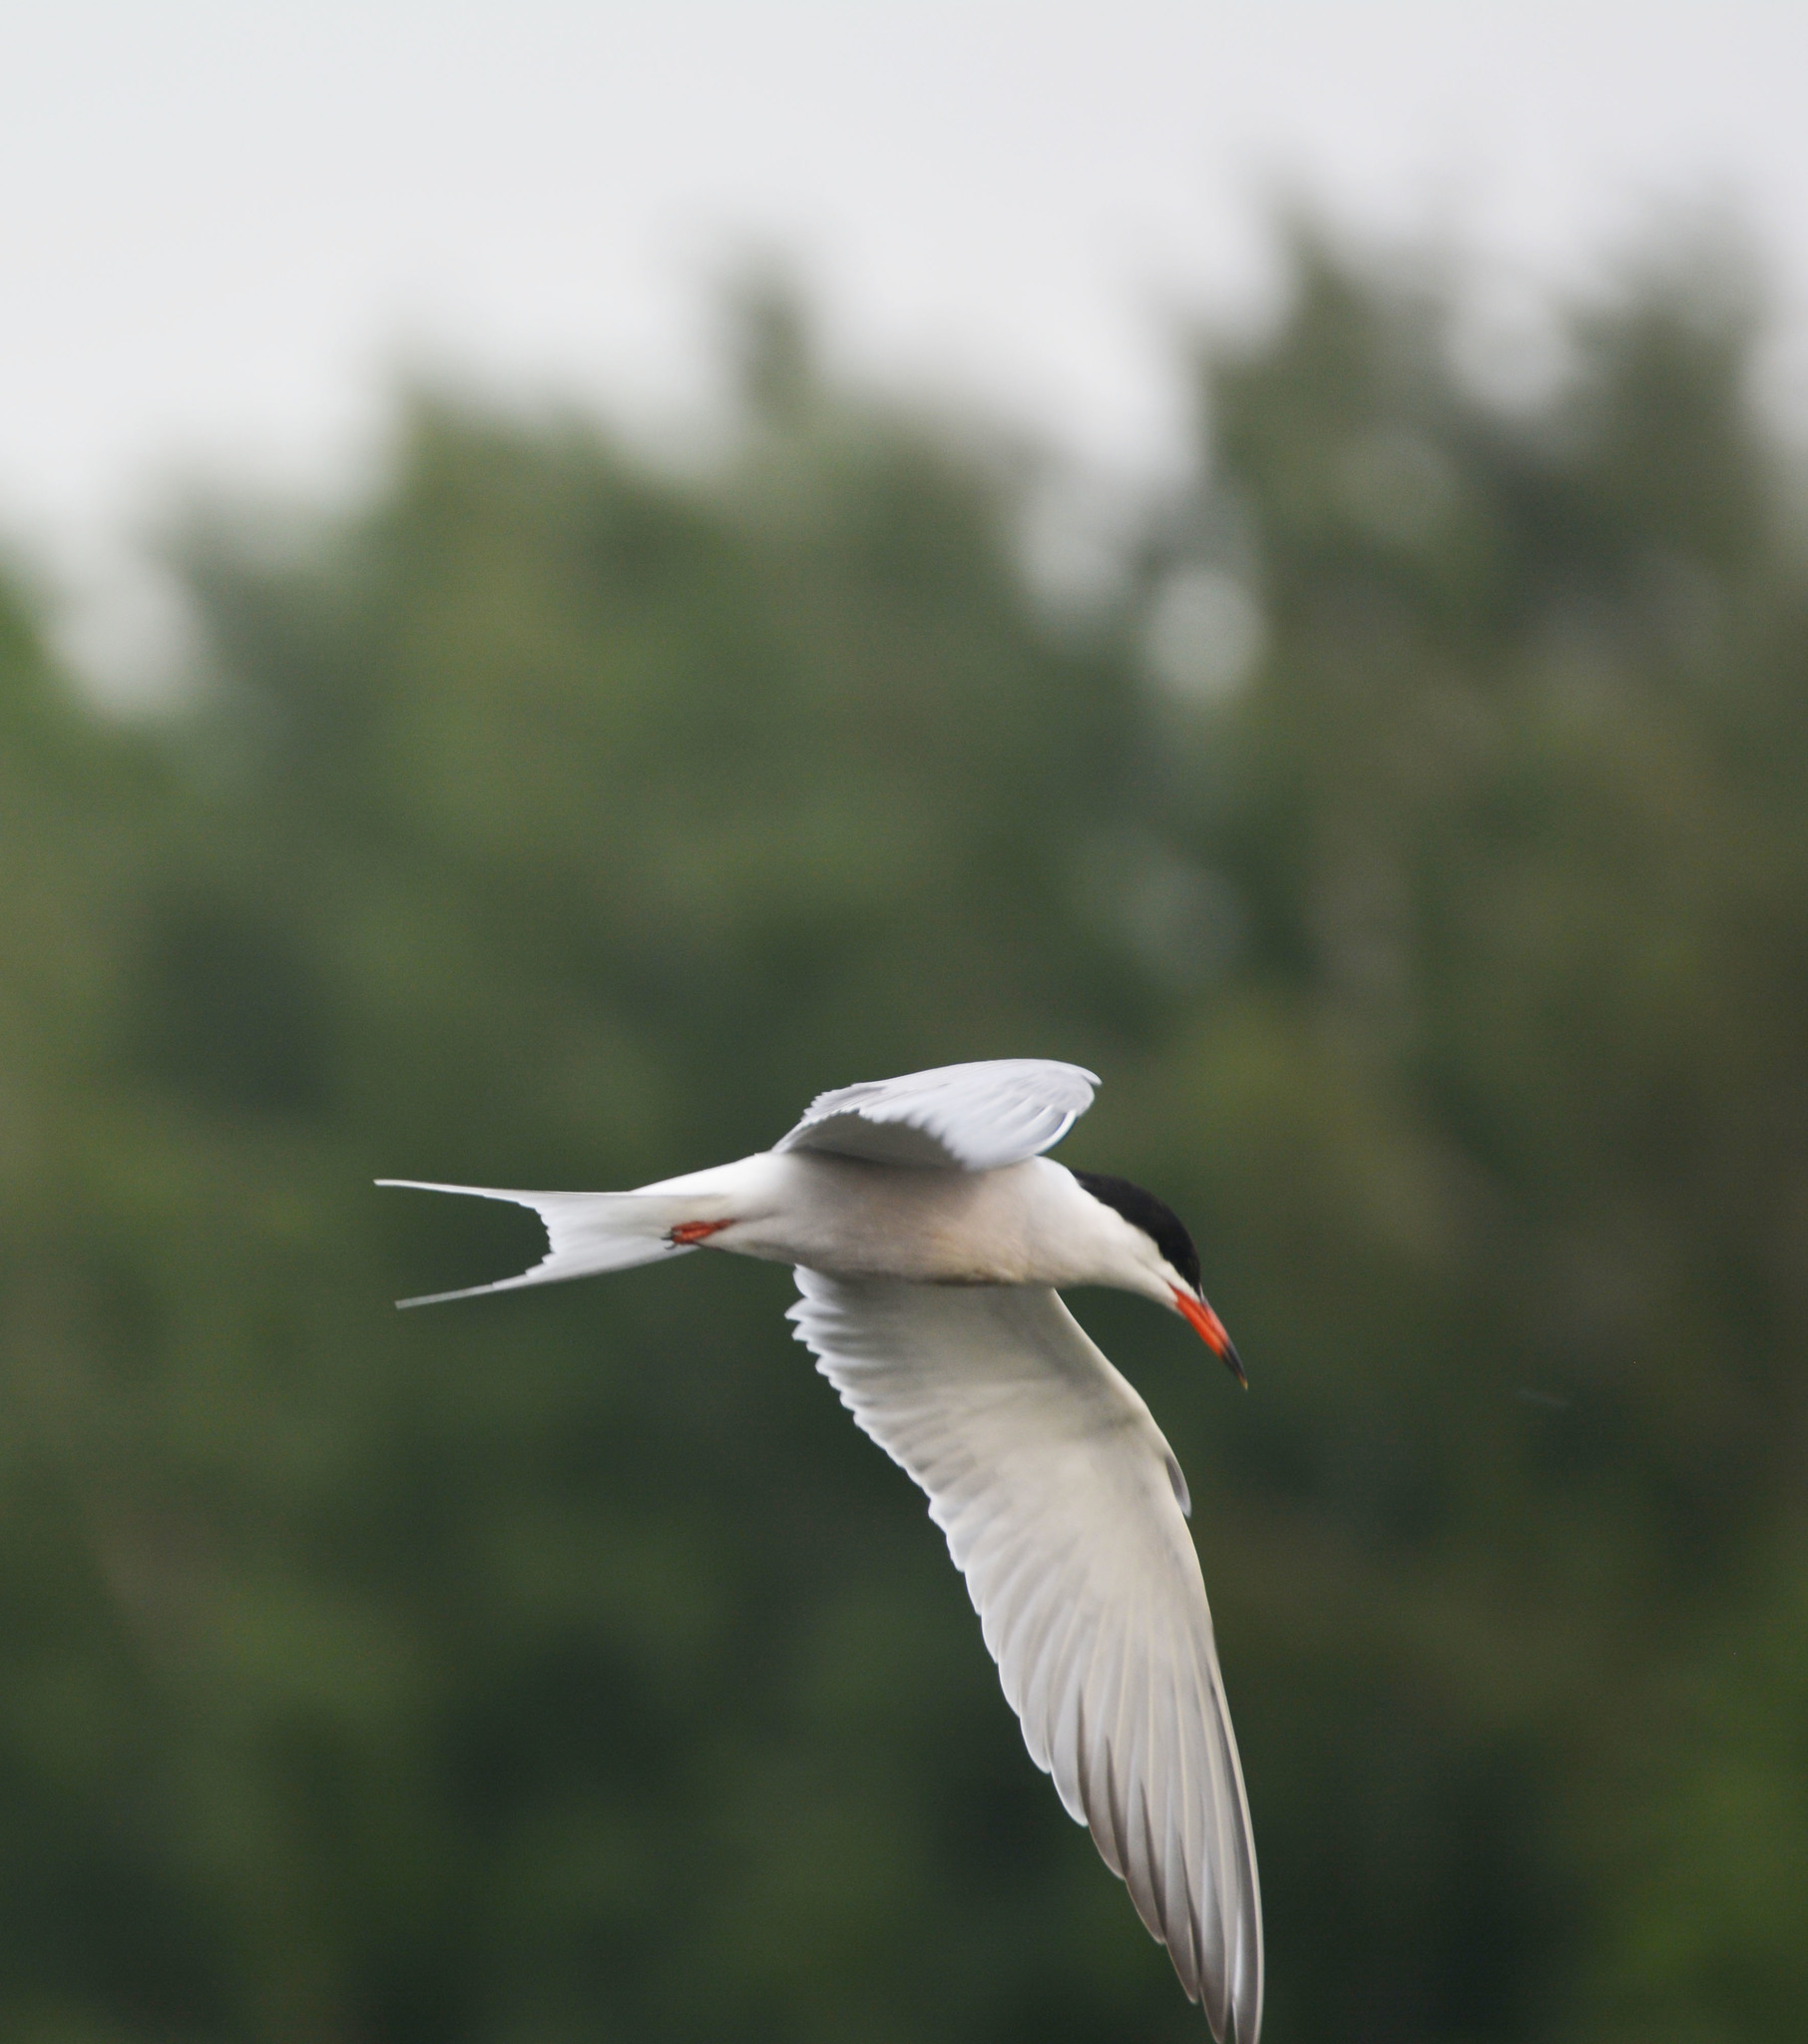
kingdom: Animalia
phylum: Chordata
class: Aves
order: Charadriiformes
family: Laridae
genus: Sterna
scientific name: Sterna hirundo
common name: Common tern
